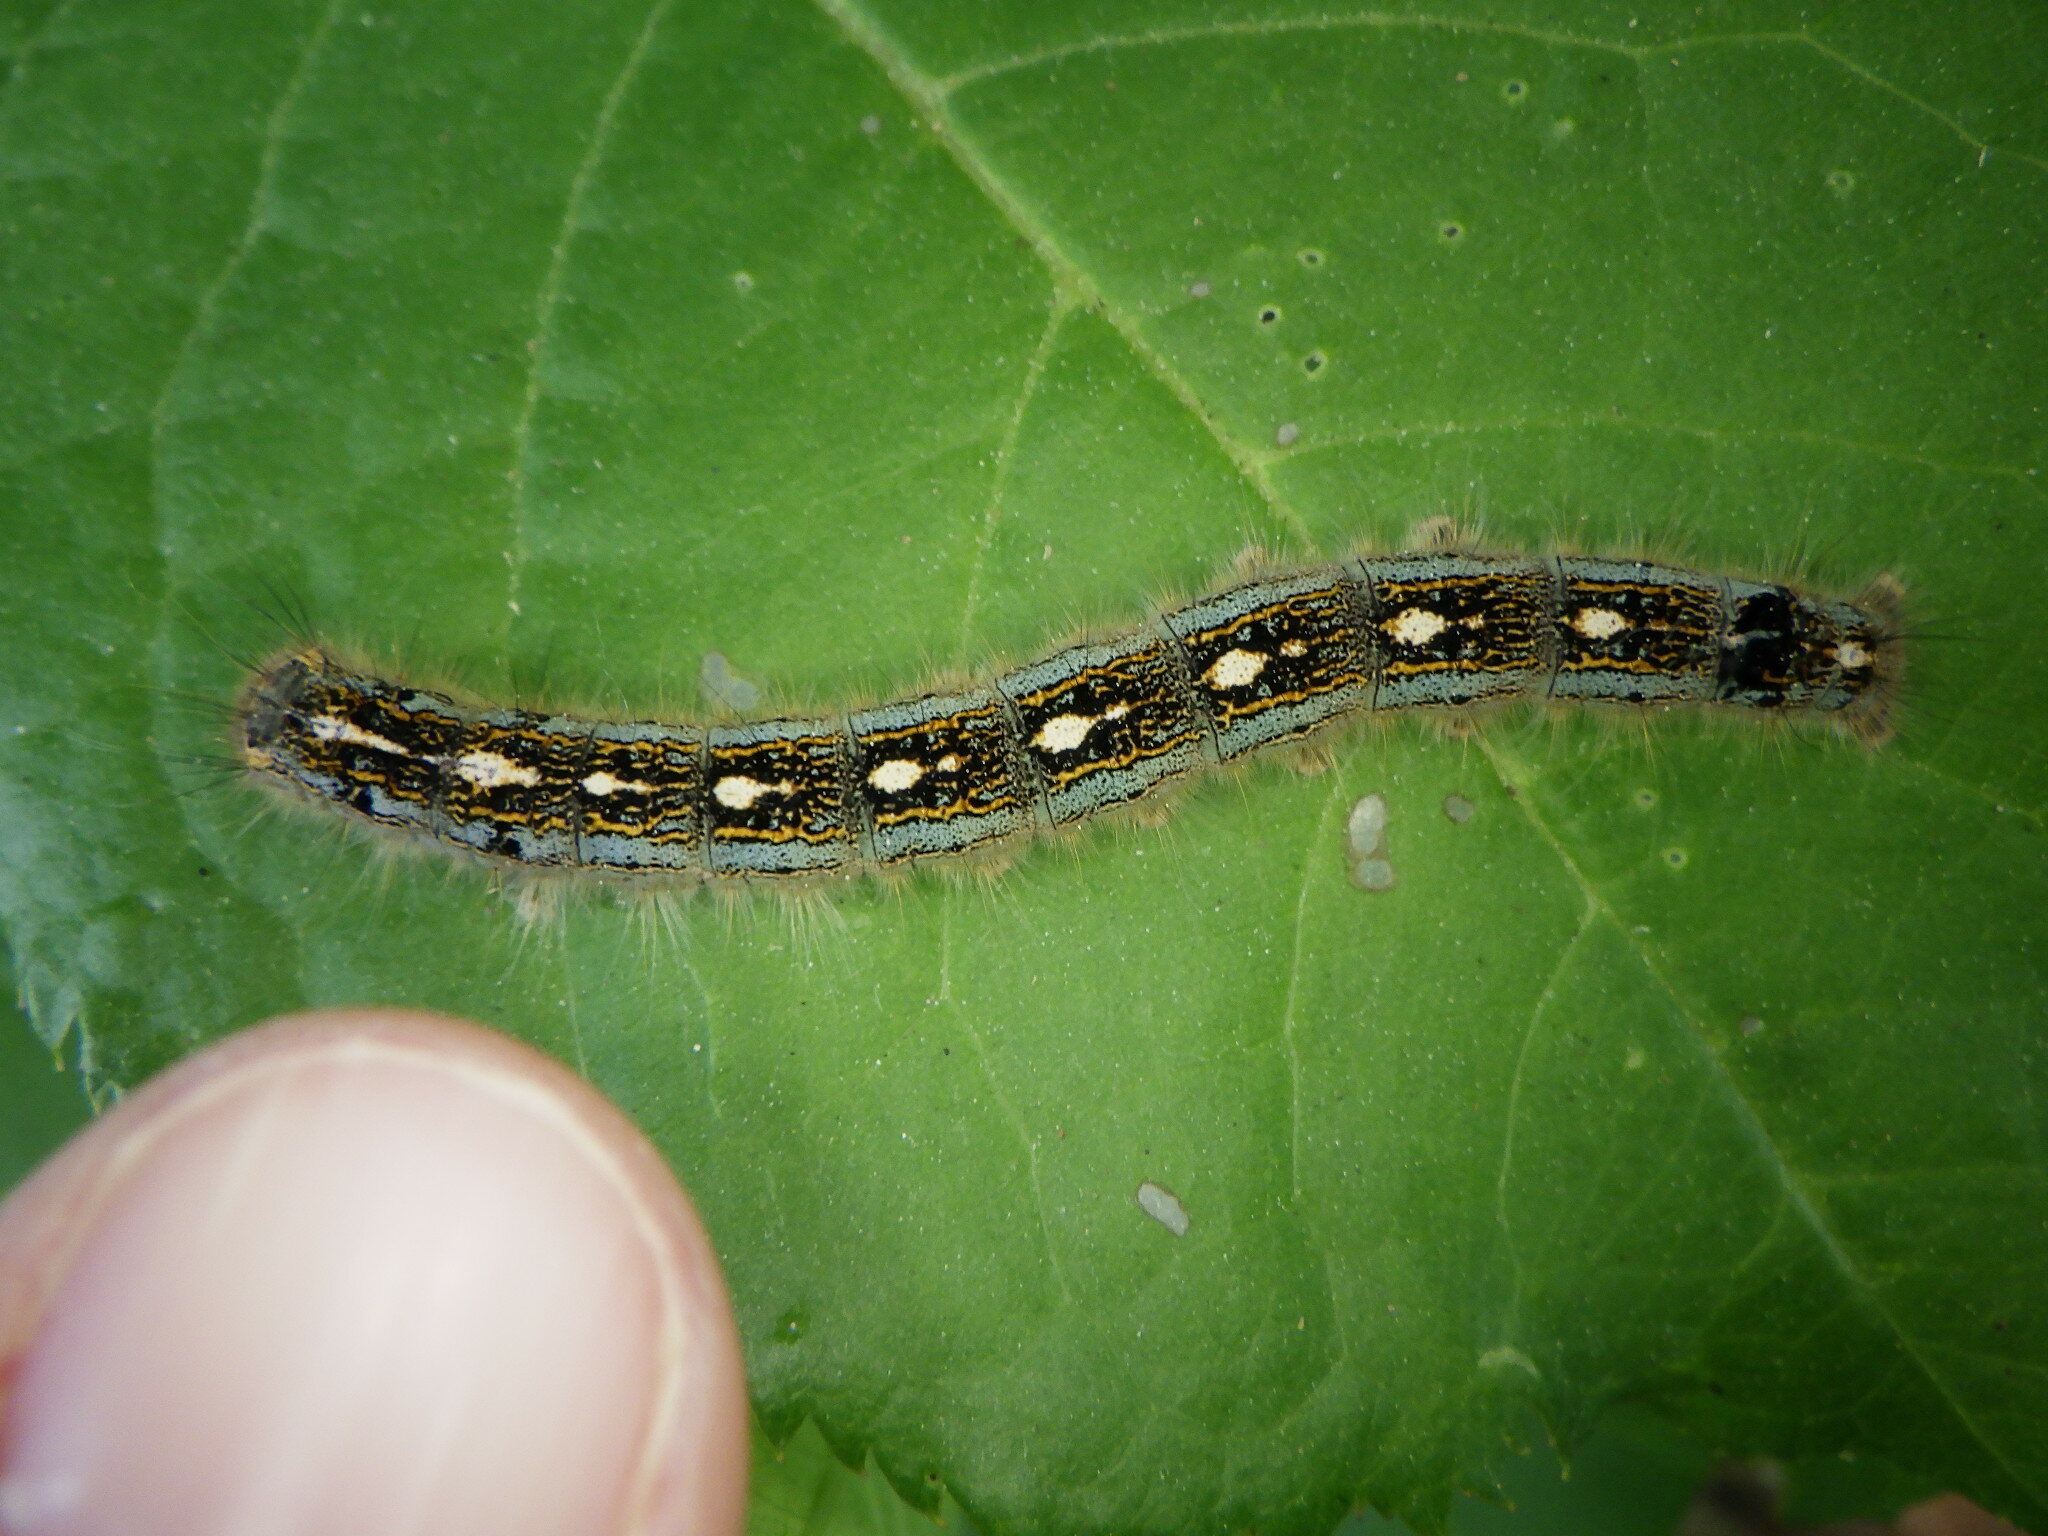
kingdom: Animalia
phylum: Arthropoda
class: Insecta
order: Lepidoptera
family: Lasiocampidae
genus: Malacosoma
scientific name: Malacosoma disstria
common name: Forest tent caterpillar
